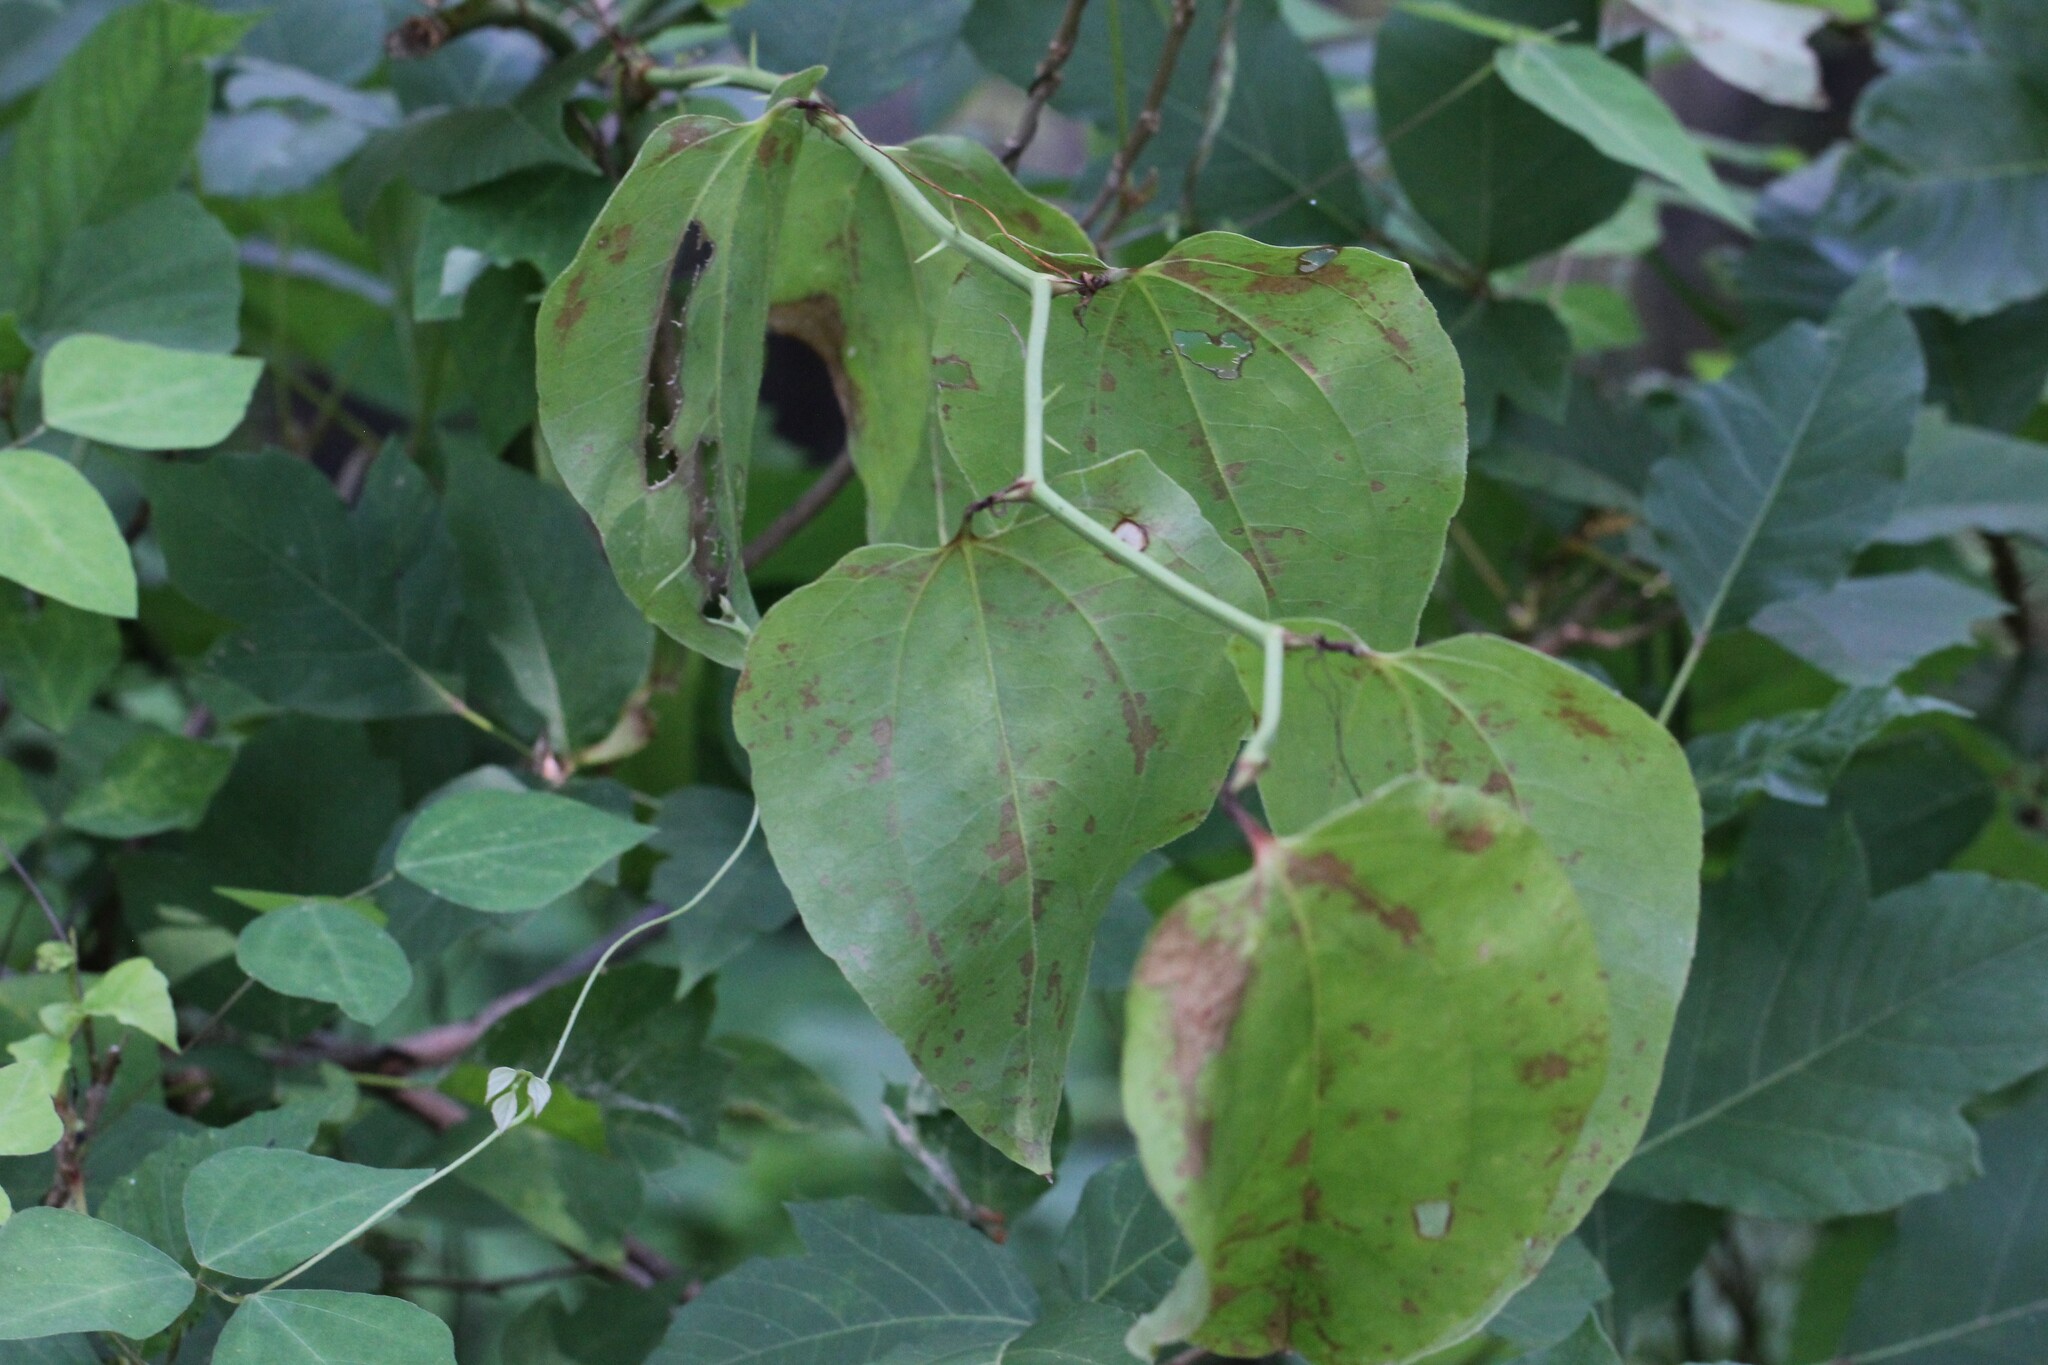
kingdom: Plantae
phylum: Tracheophyta
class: Liliopsida
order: Liliales
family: Smilacaceae
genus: Smilax
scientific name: Smilax rotundifolia
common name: Bullbriar
